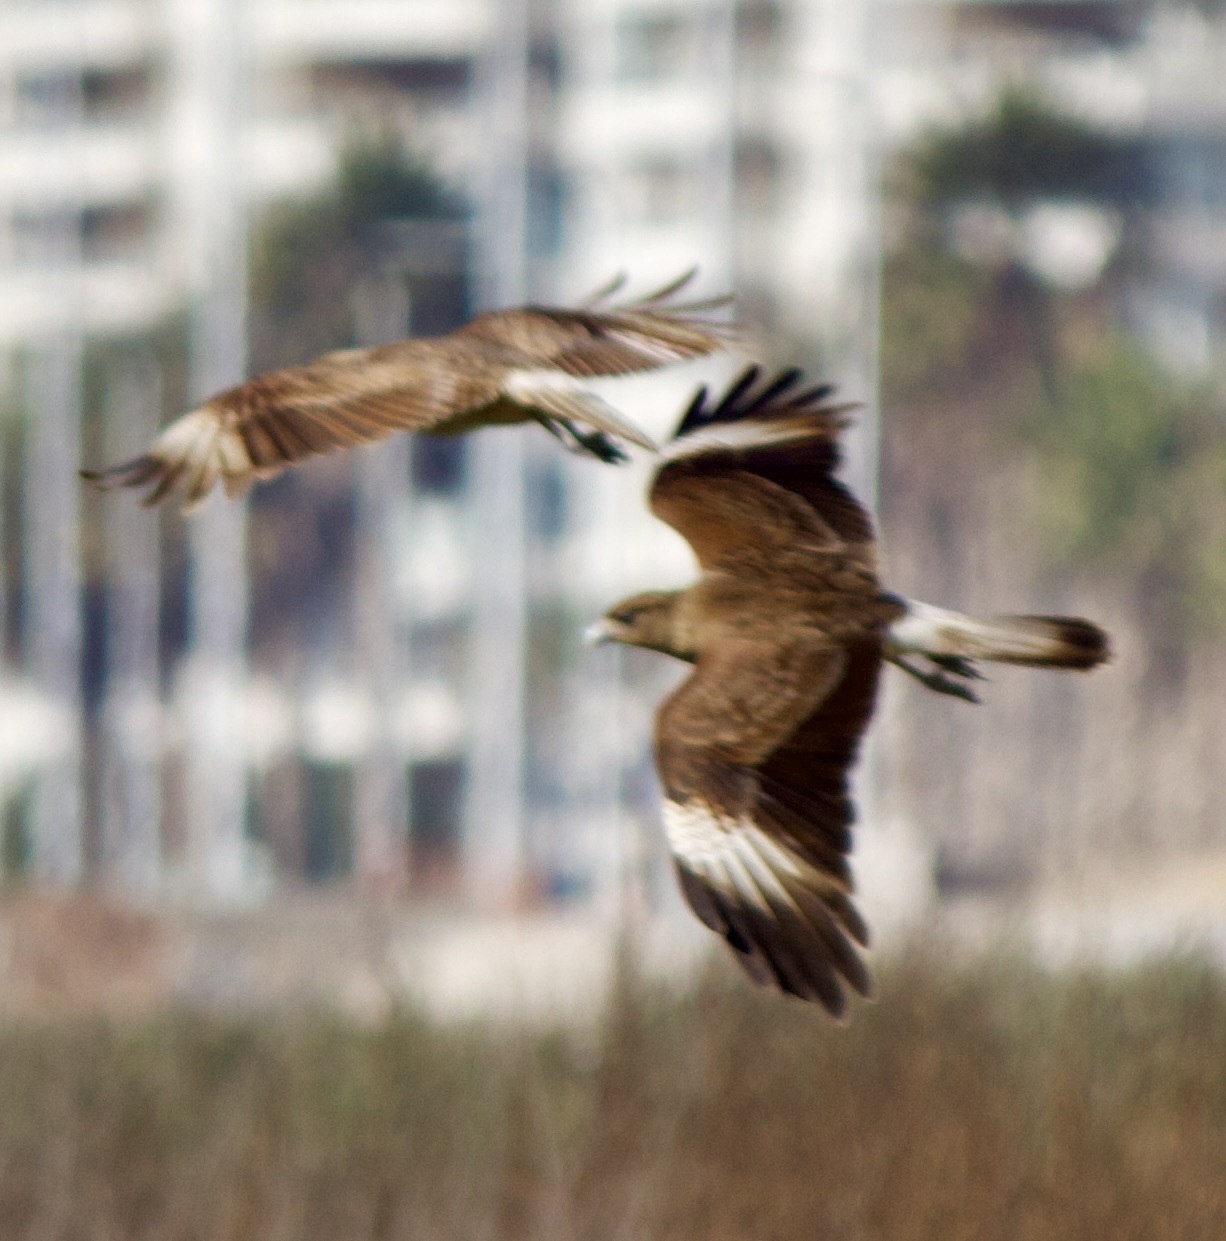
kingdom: Animalia
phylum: Chordata
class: Aves
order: Falconiformes
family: Falconidae
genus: Daptrius
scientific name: Daptrius
